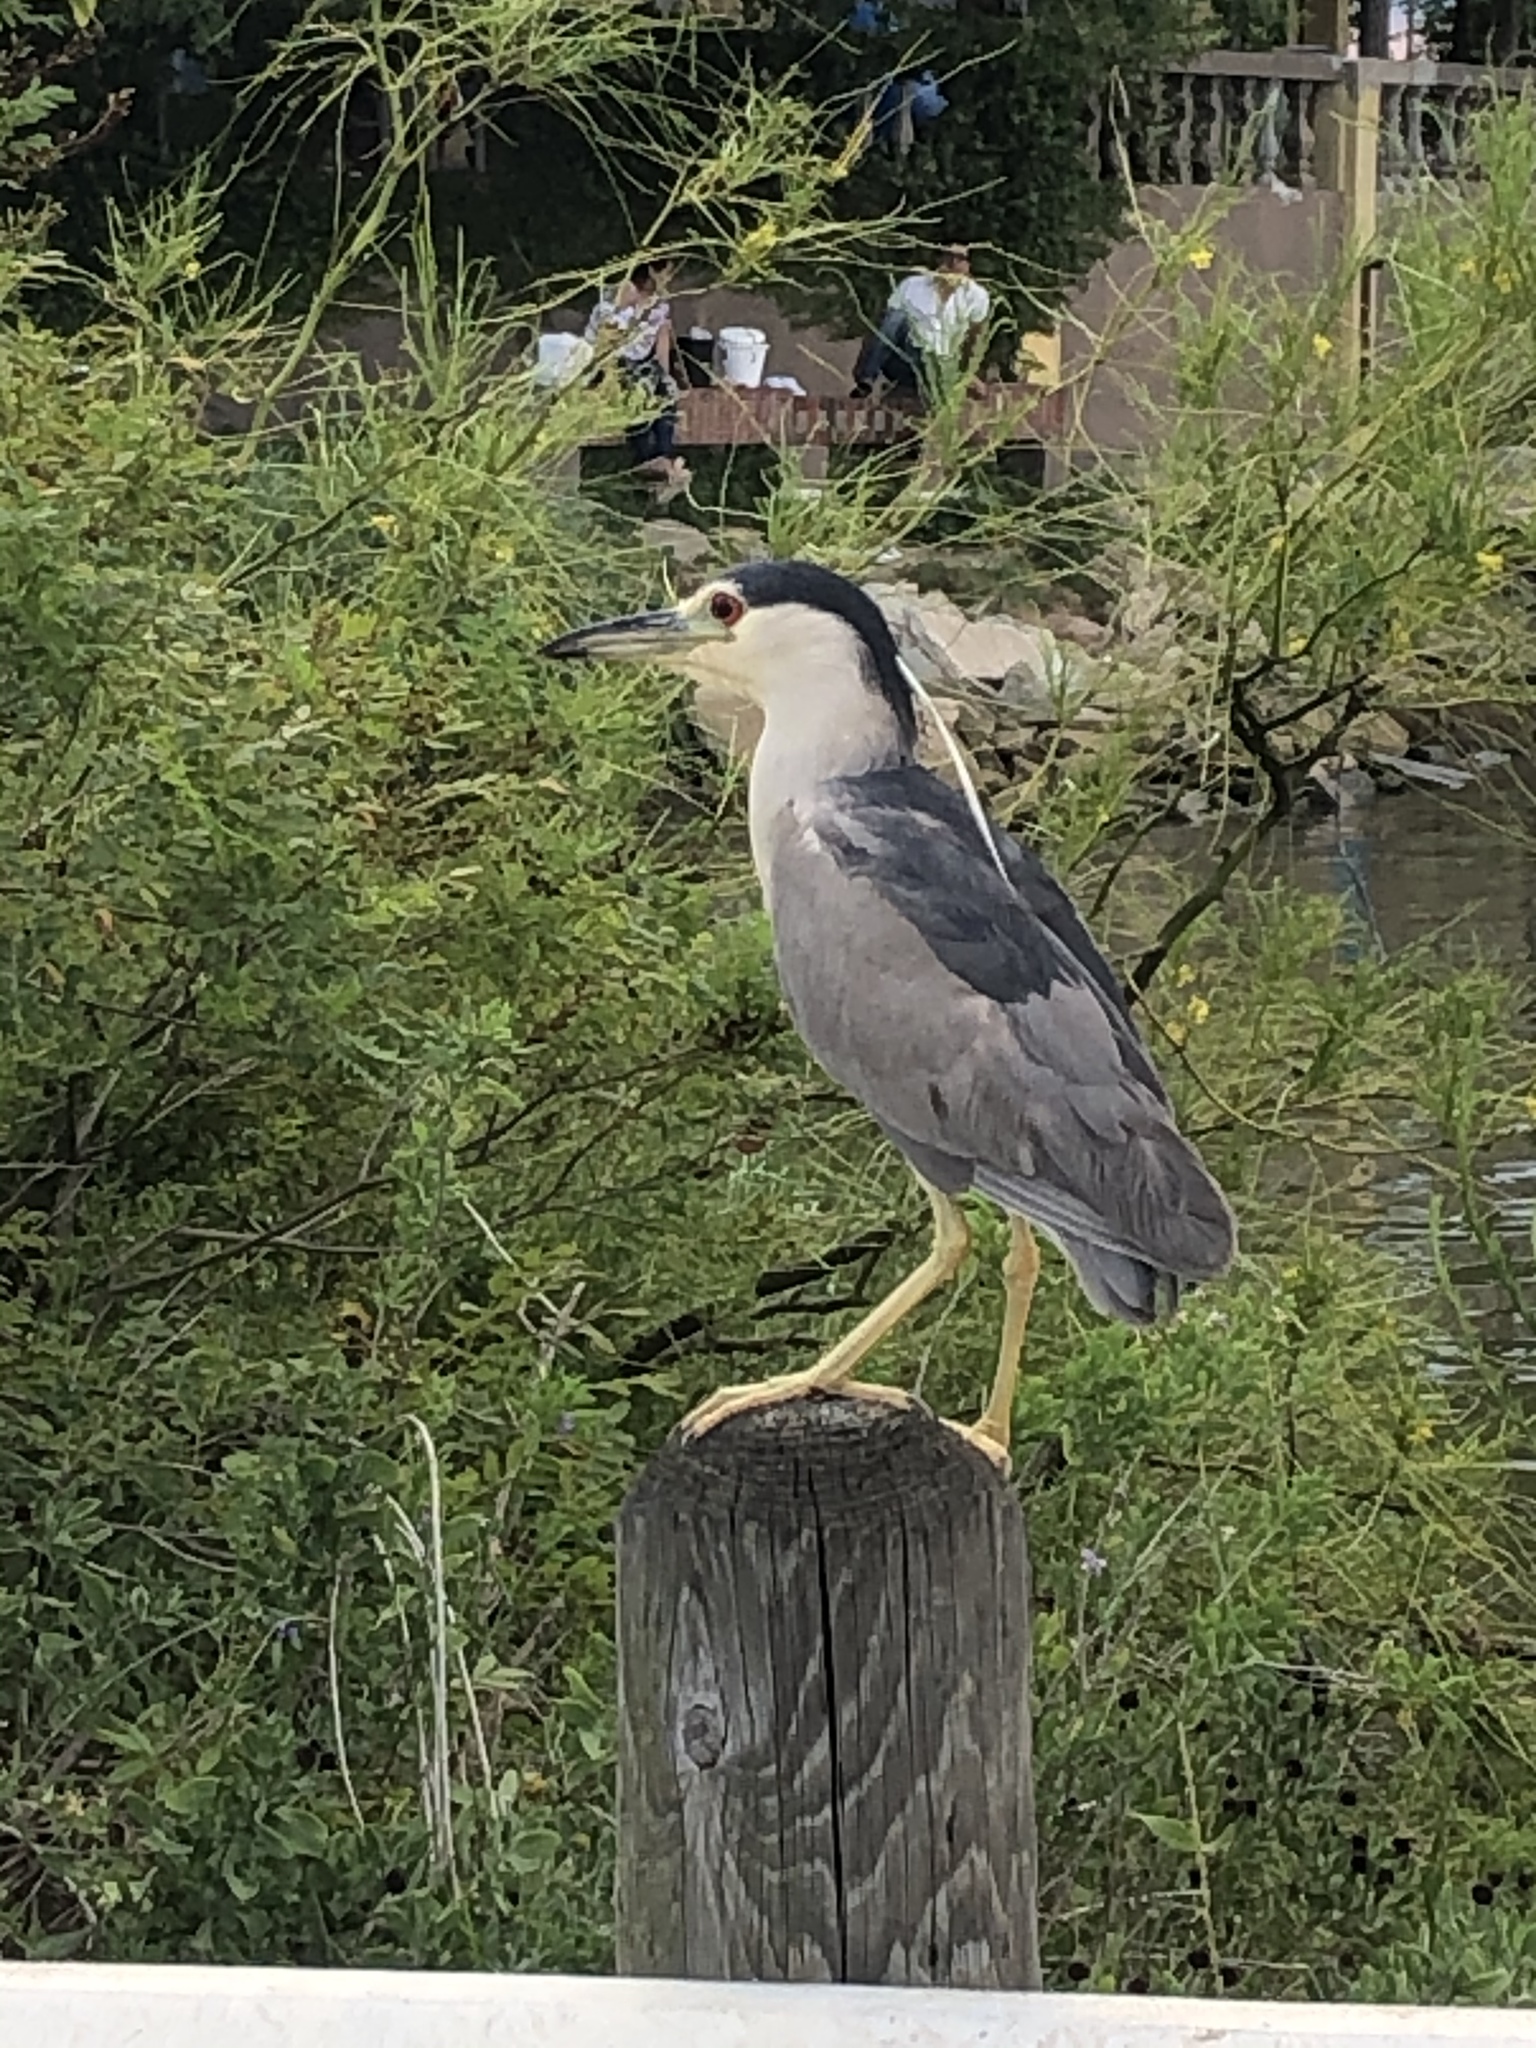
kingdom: Animalia
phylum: Chordata
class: Aves
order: Pelecaniformes
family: Ardeidae
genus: Nycticorax
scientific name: Nycticorax nycticorax
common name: Black-crowned night heron
